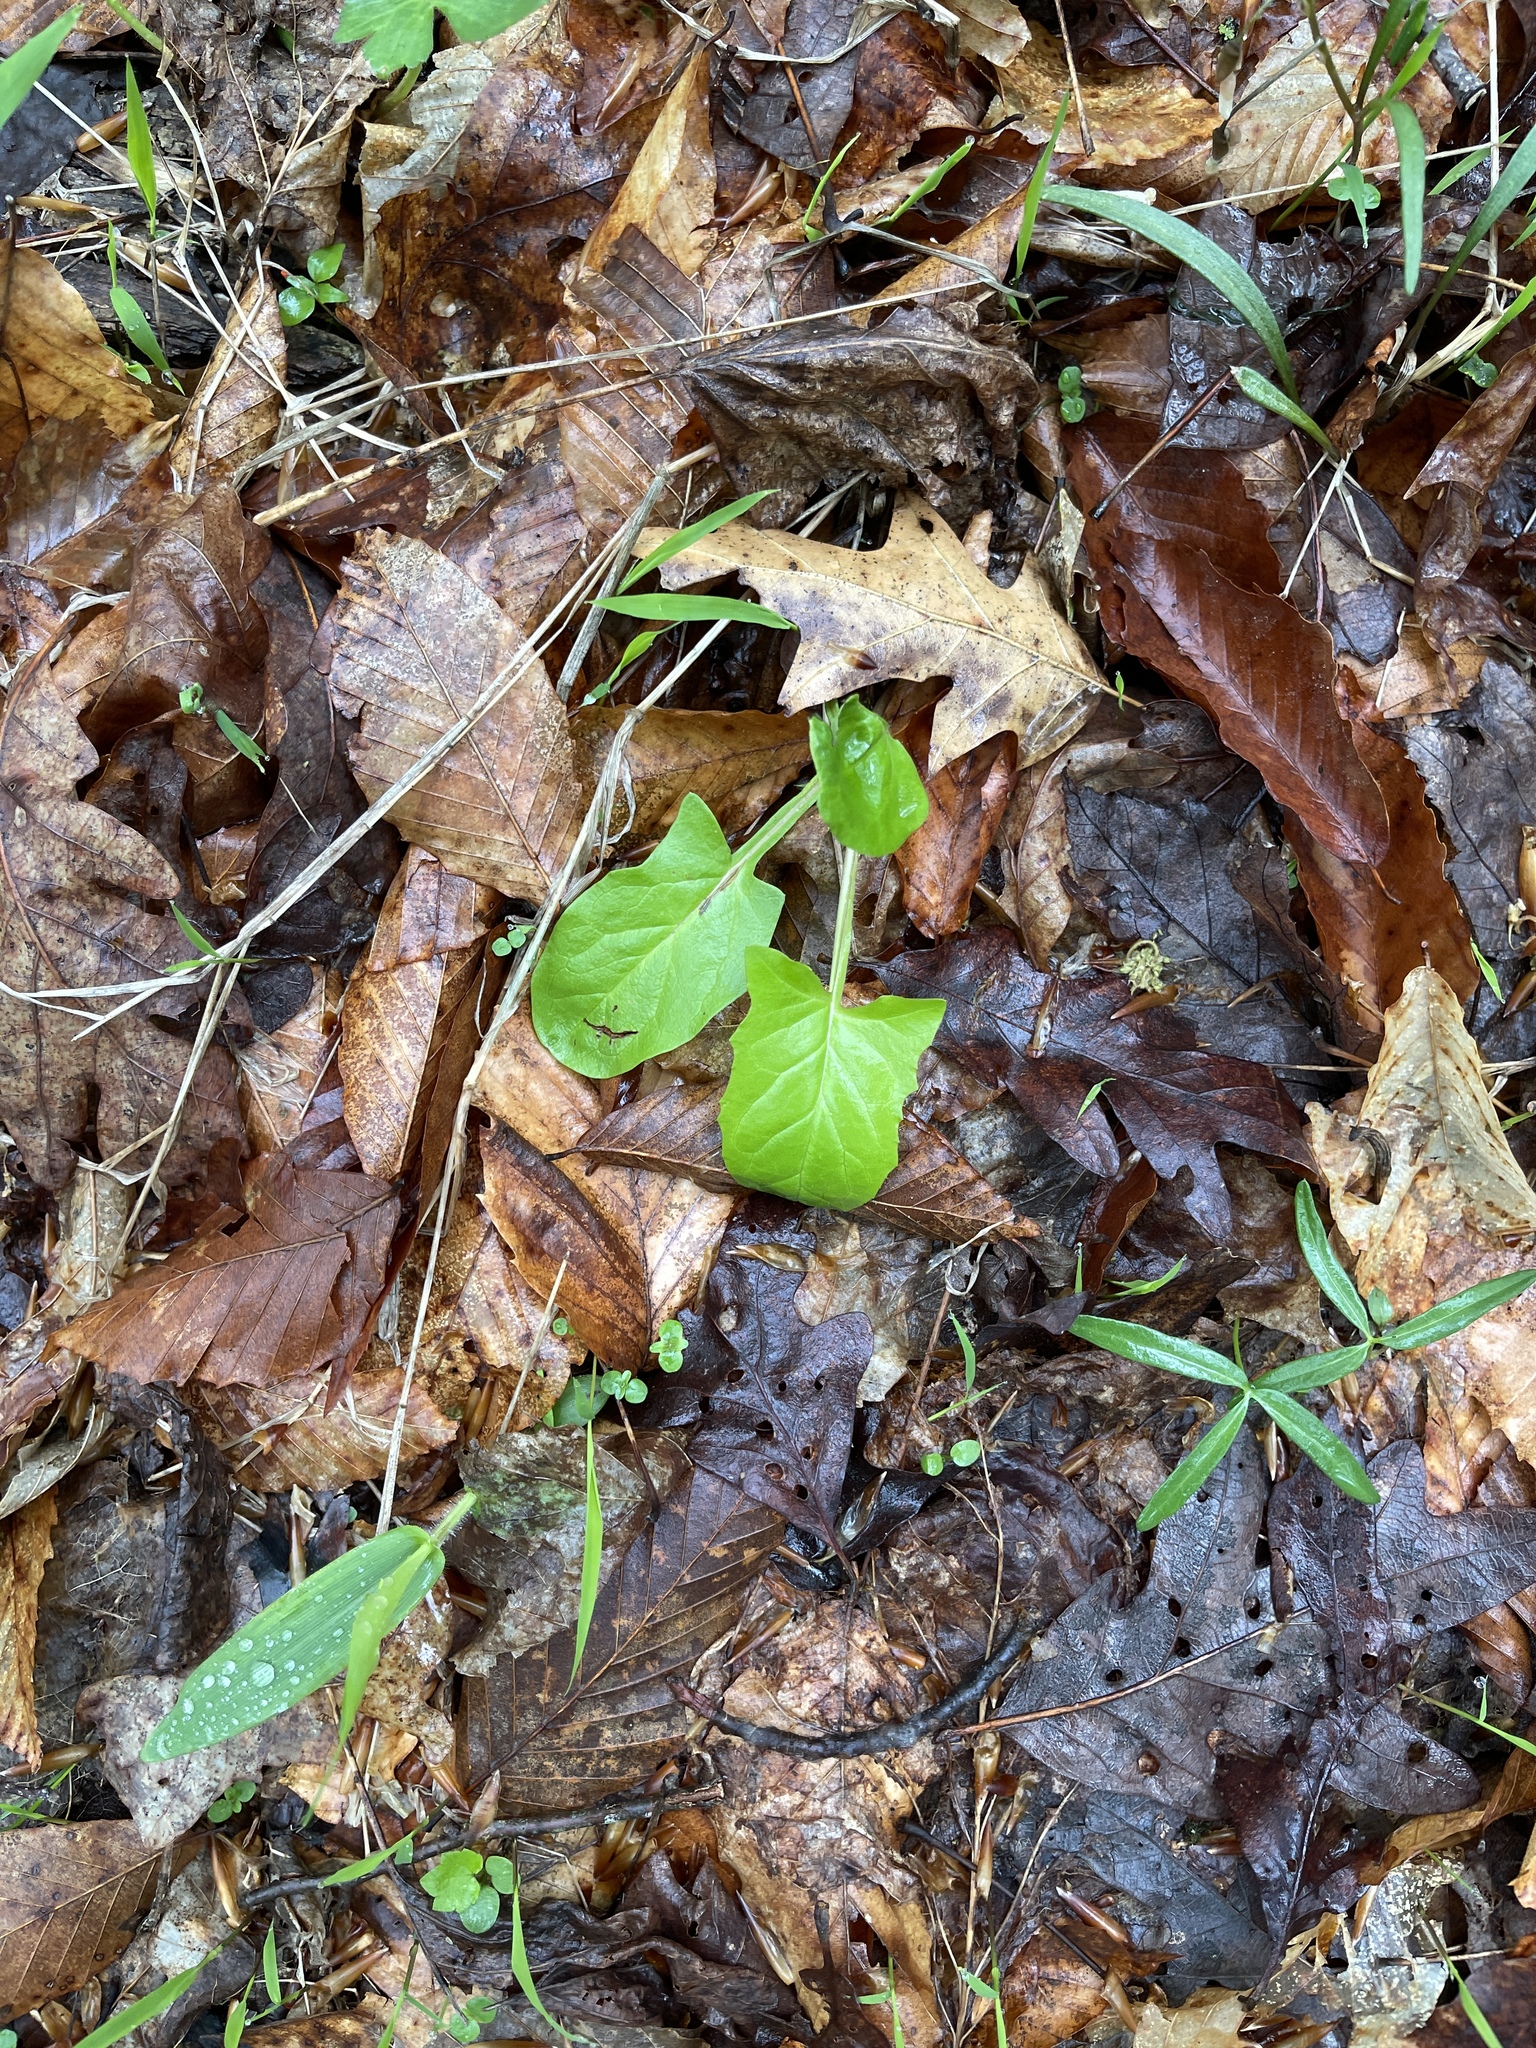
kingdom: Plantae
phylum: Tracheophyta
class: Magnoliopsida
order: Asterales
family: Asteraceae
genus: Nabalus
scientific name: Nabalus crepidineus
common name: Nodding rattlesnakeroot
